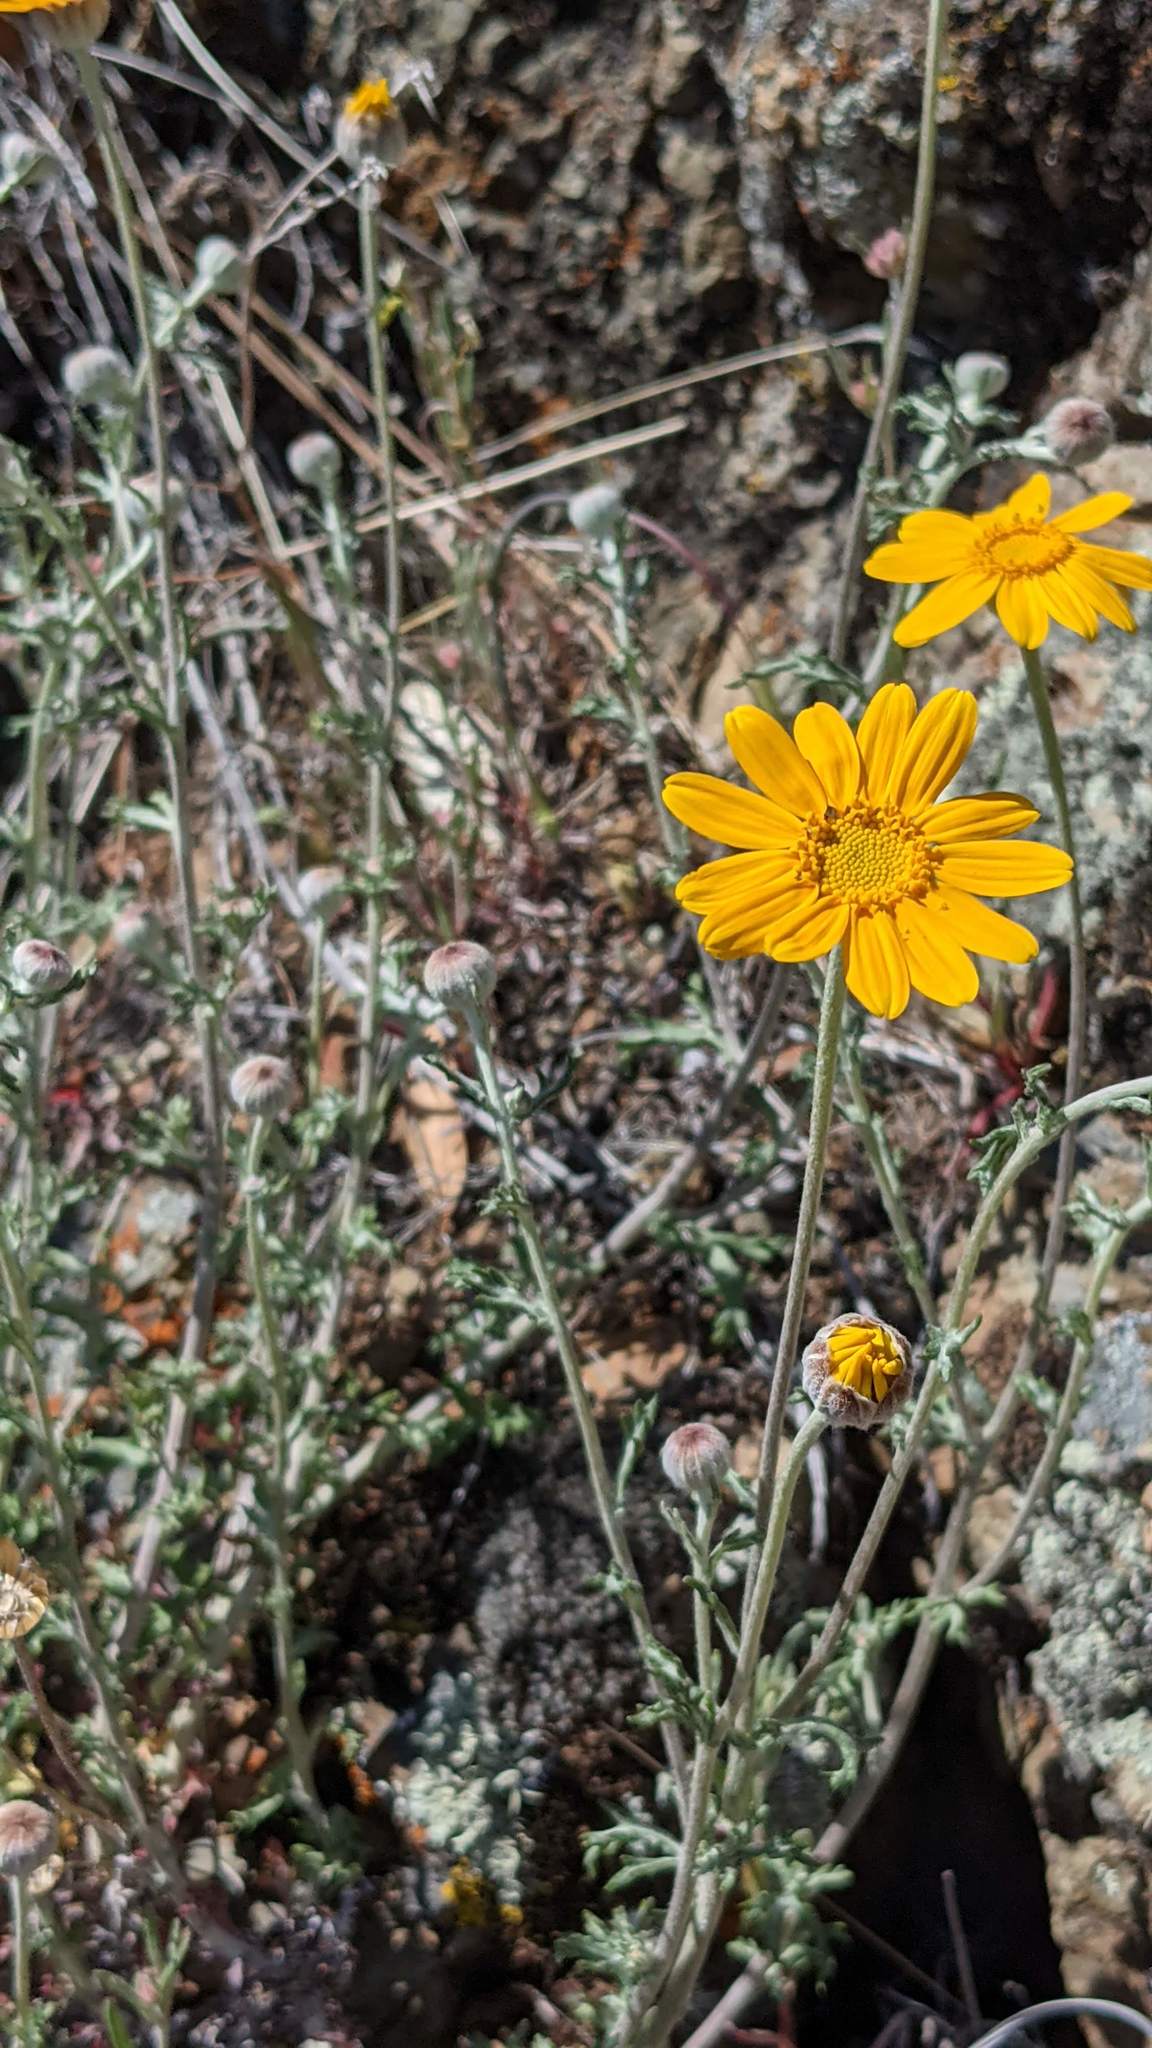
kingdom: Plantae
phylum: Tracheophyta
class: Magnoliopsida
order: Asterales
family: Asteraceae
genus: Eriophyllum
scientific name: Eriophyllum lanatum
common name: Common woolly-sunflower
